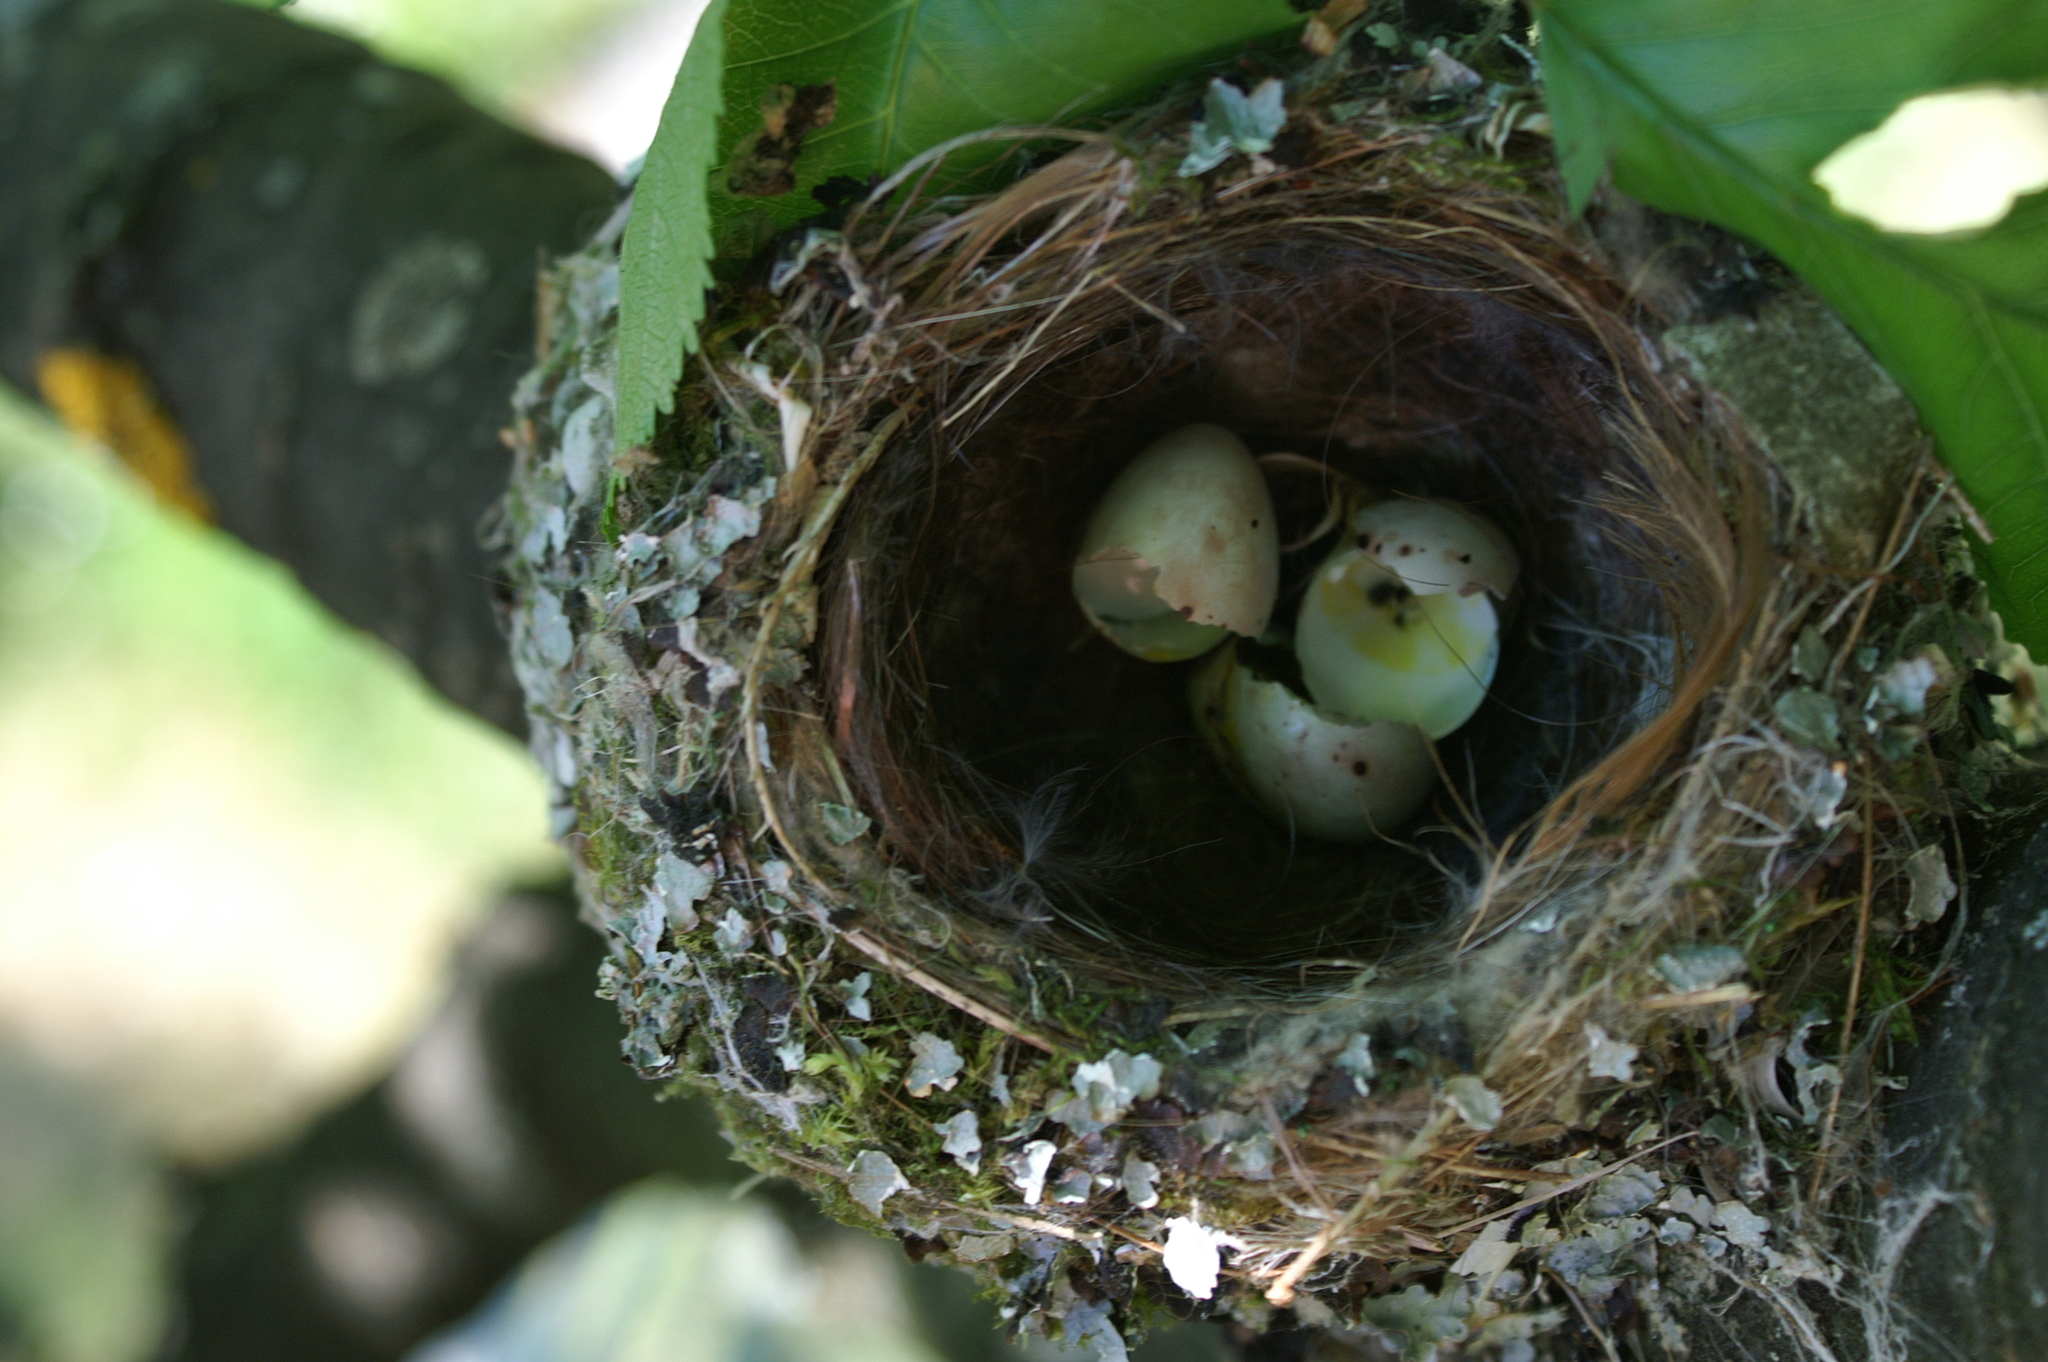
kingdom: Animalia
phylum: Chordata
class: Aves
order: Passeriformes
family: Fringillidae
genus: Fringilla
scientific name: Fringilla coelebs
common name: Common chaffinch
